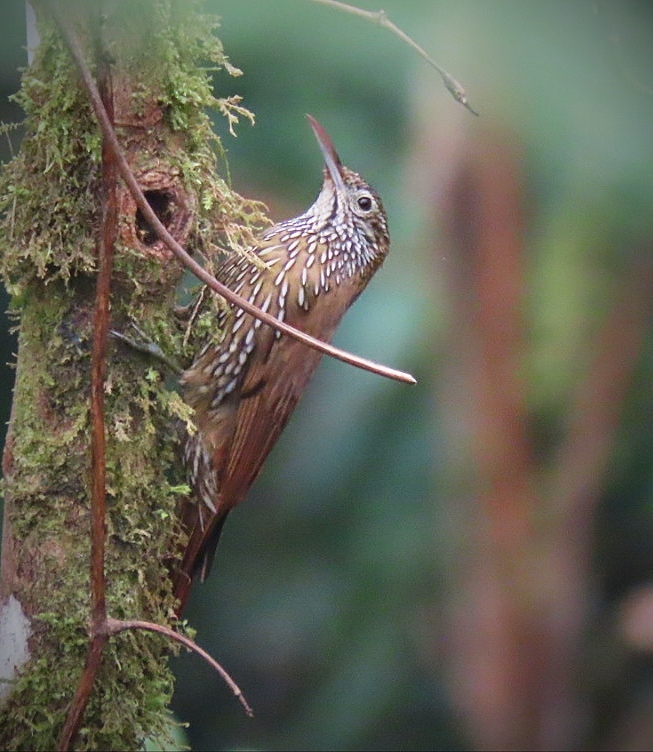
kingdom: Animalia
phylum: Chordata
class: Aves
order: Passeriformes
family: Furnariidae
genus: Lepidocolaptes
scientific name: Lepidocolaptes lacrymiger
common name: Montane woodcreeper
